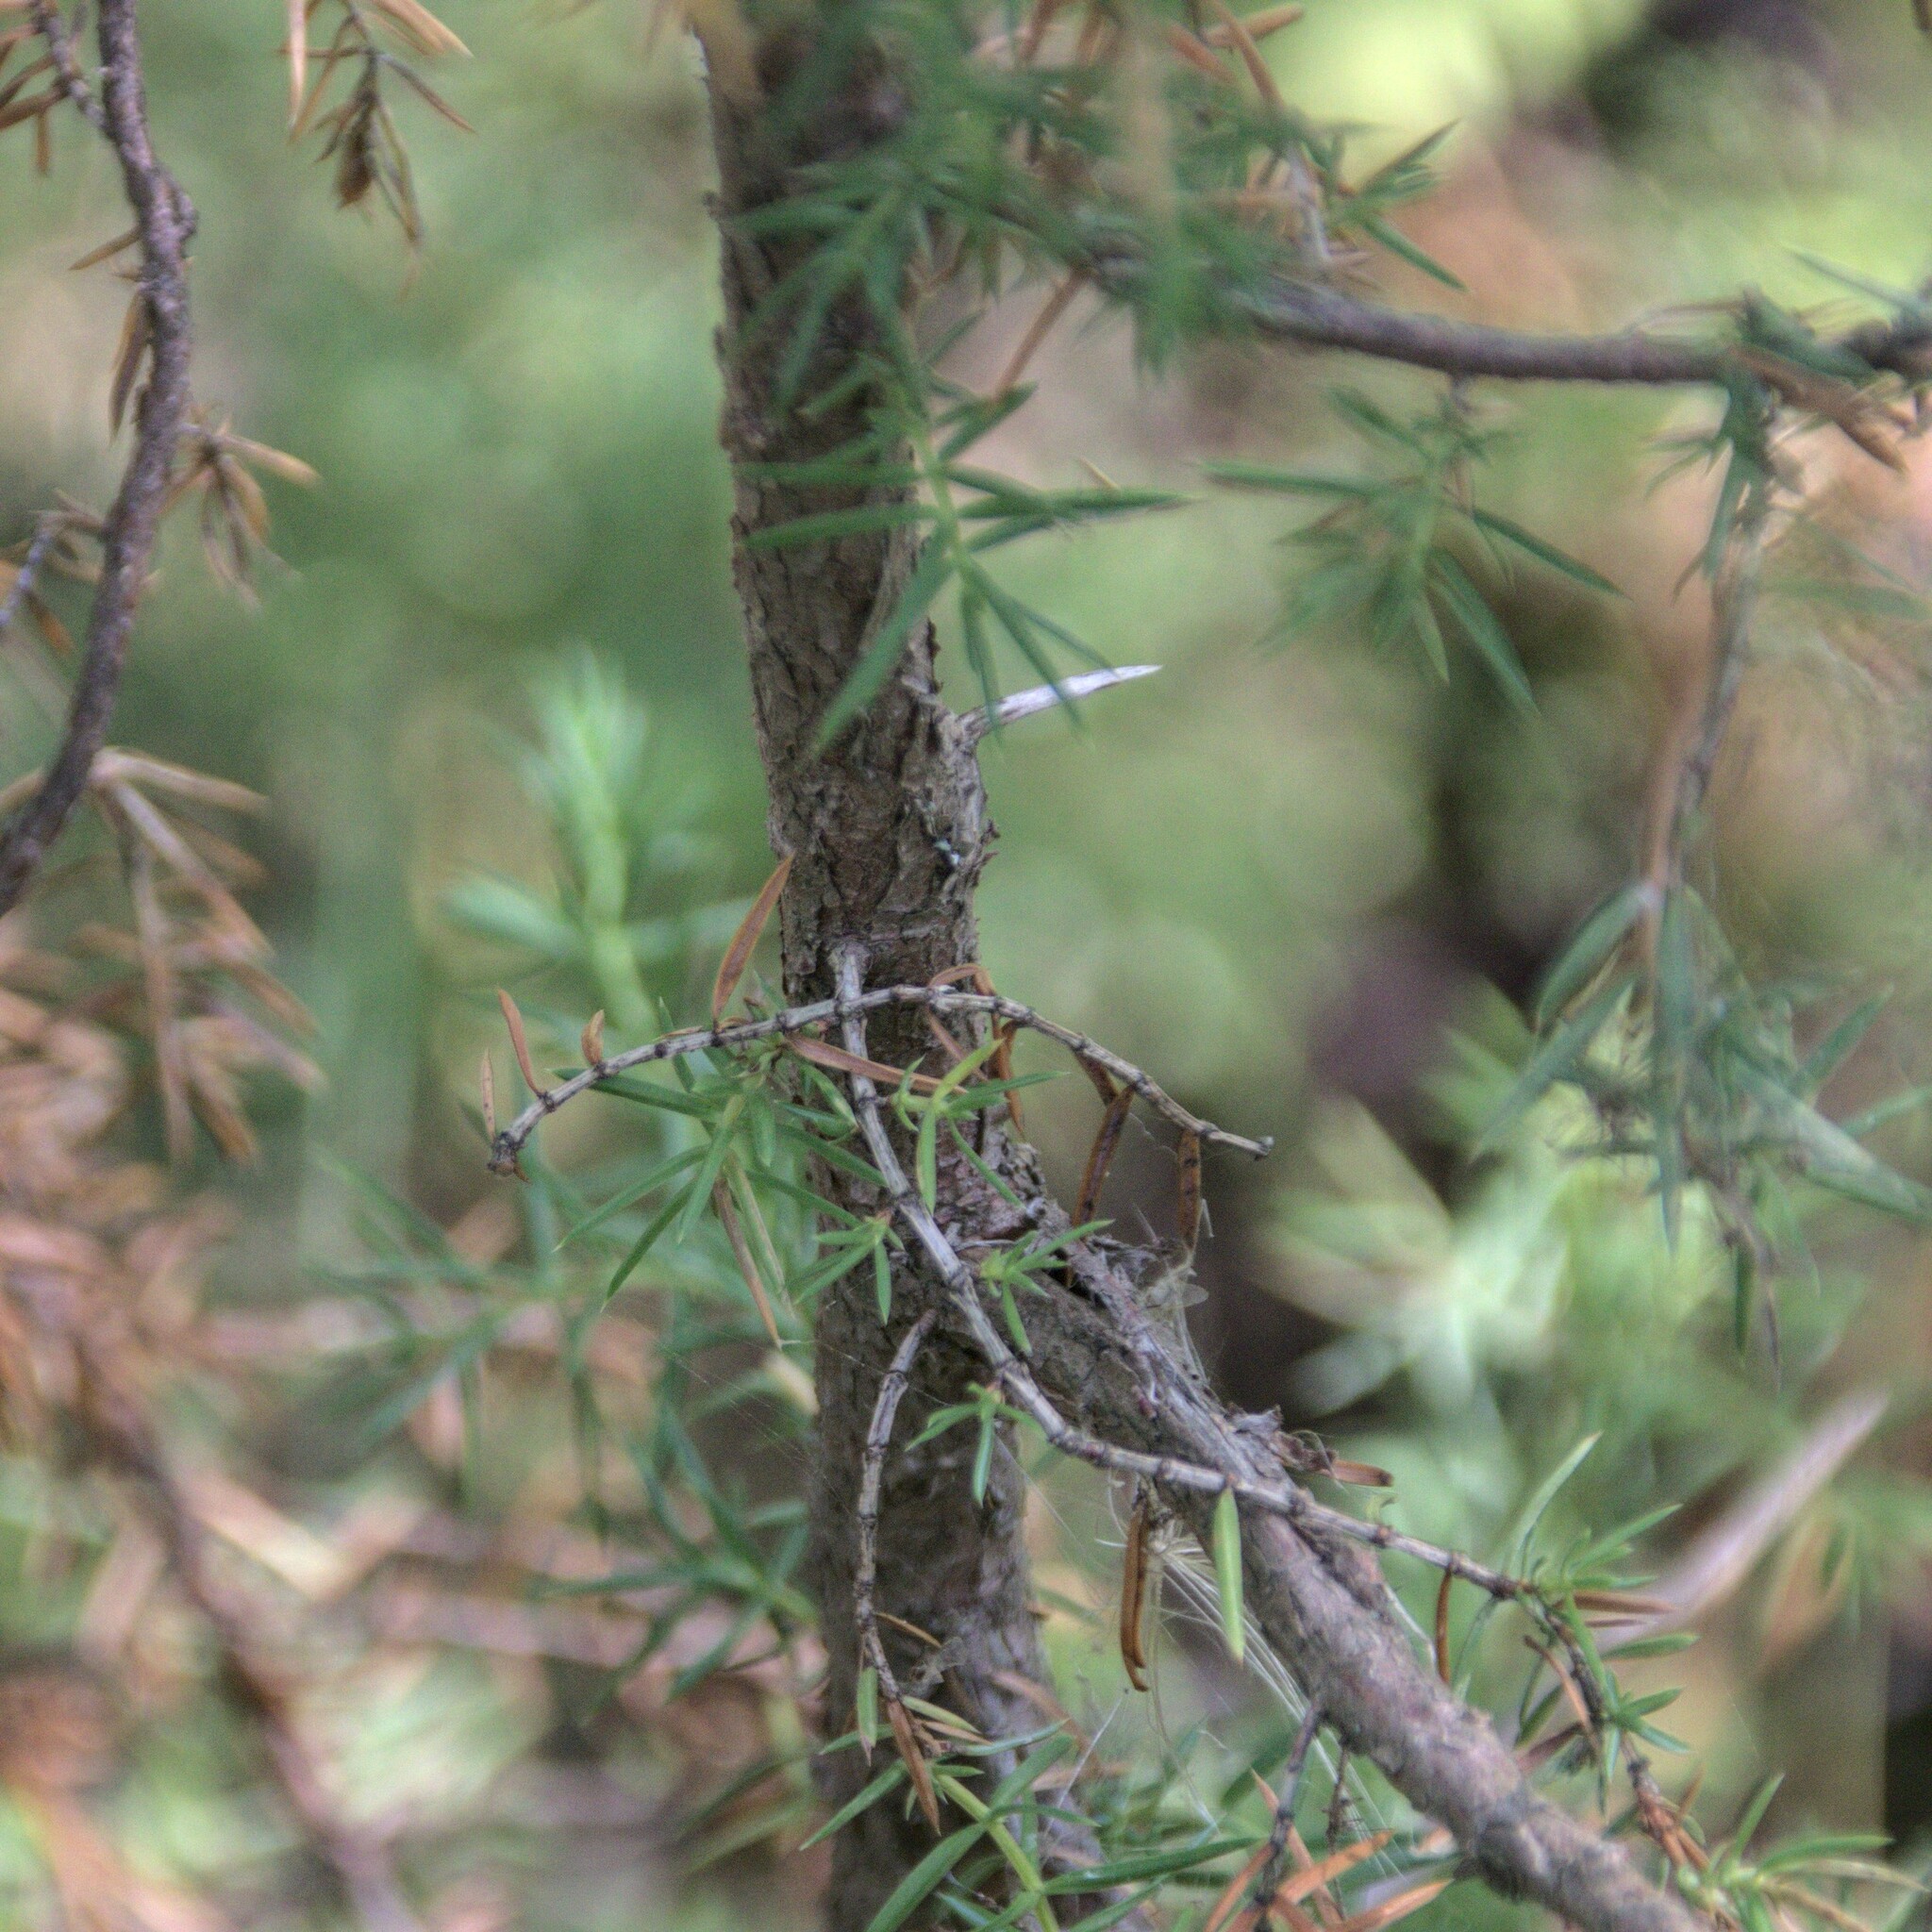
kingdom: Plantae
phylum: Tracheophyta
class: Pinopsida
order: Pinales
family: Cupressaceae
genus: Juniperus
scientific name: Juniperus communis
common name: Common juniper
